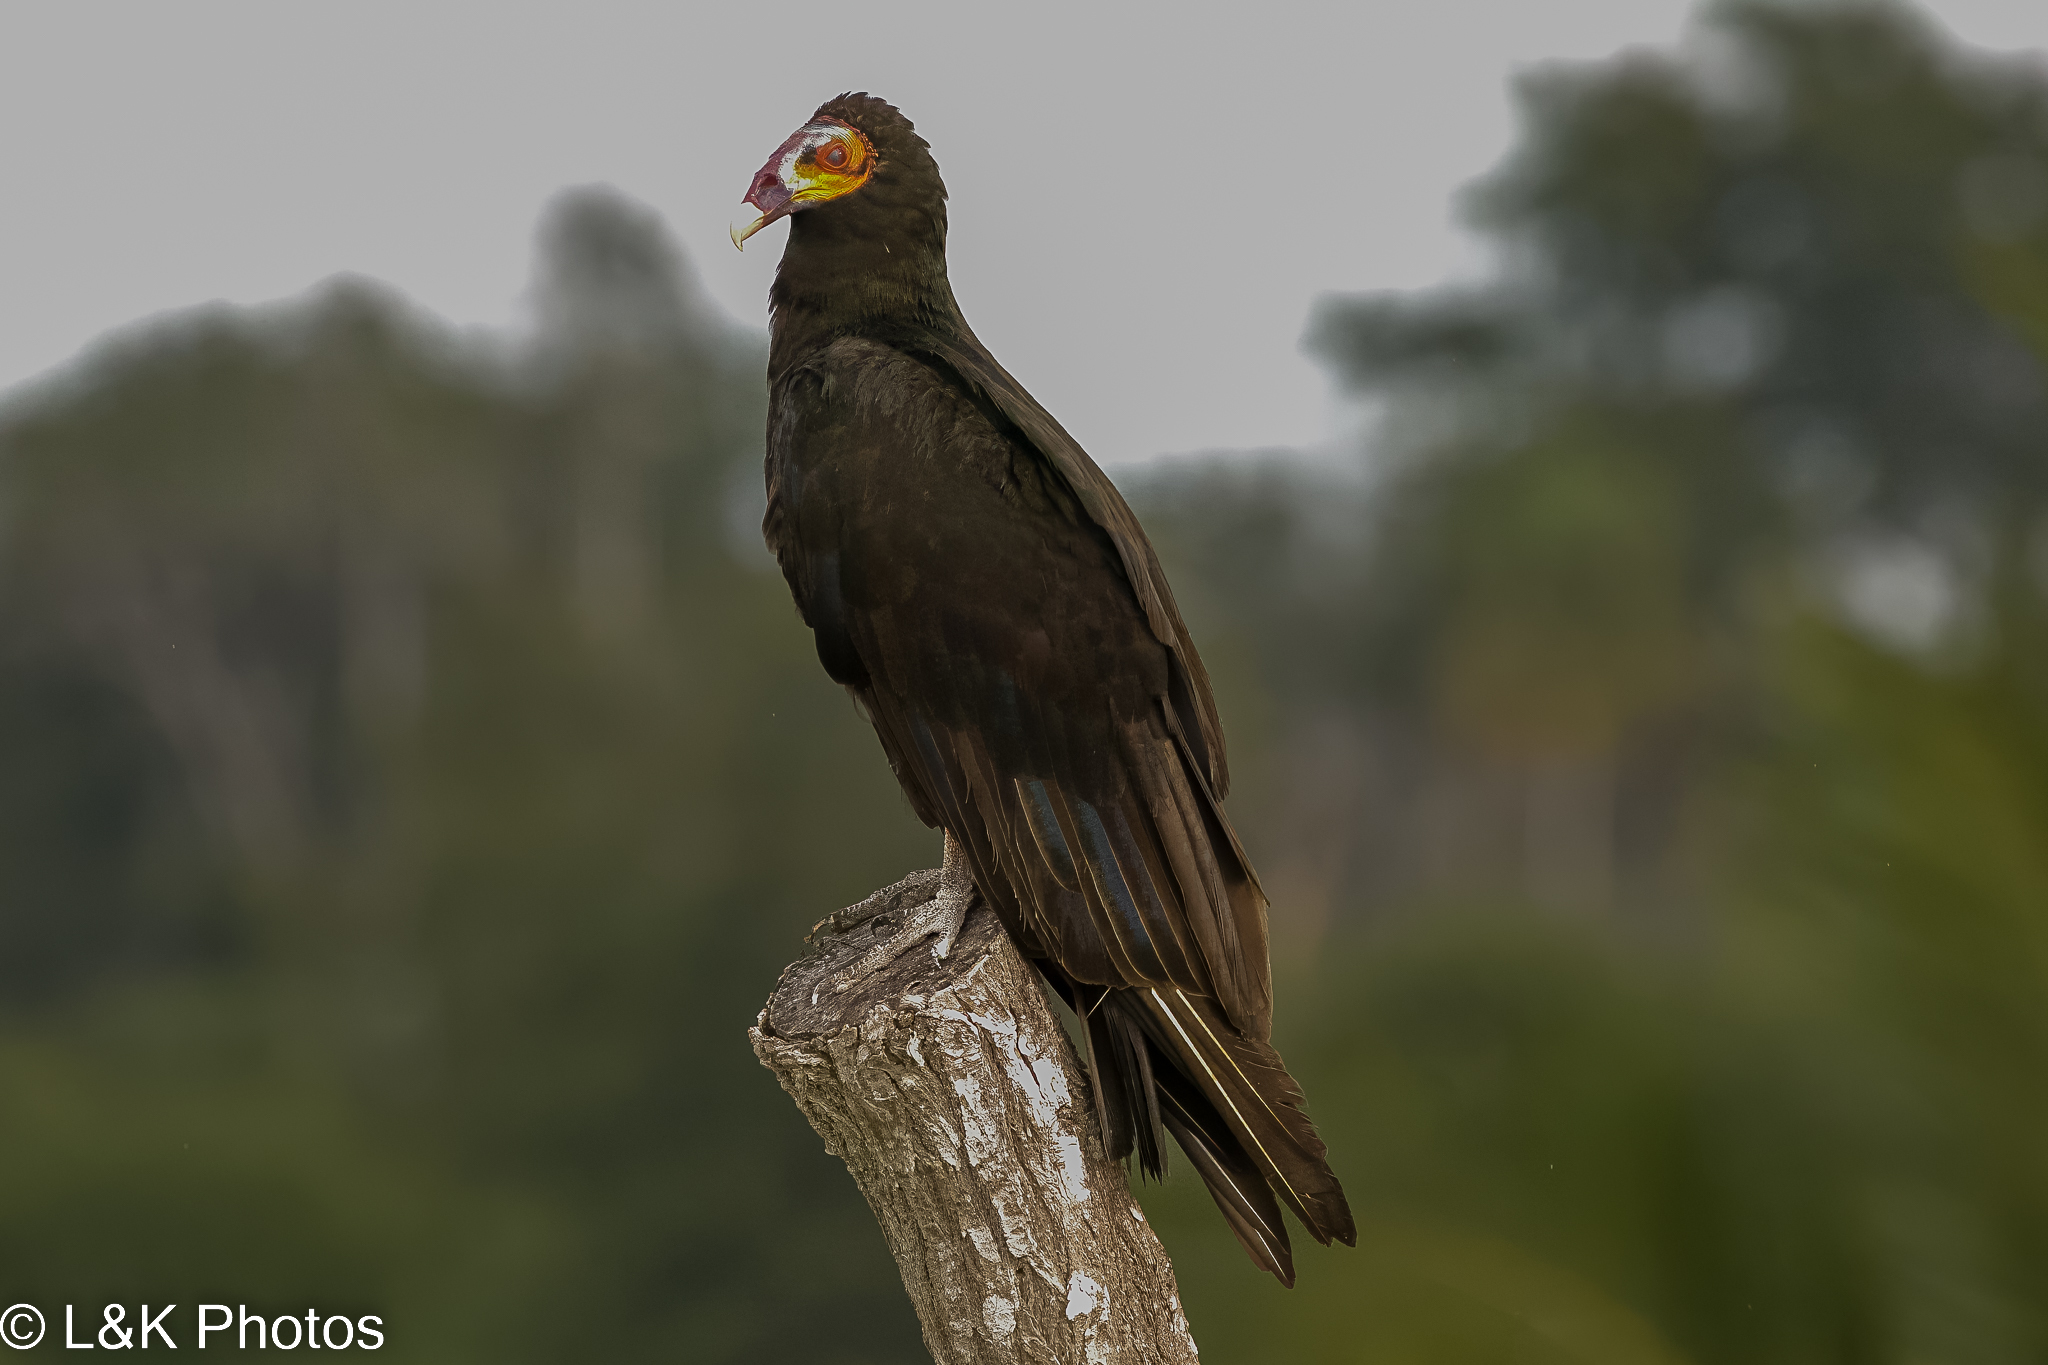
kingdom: Animalia
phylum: Chordata
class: Aves
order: Accipitriformes
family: Cathartidae
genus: Cathartes
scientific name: Cathartes burrovianus
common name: Lesser yellow-headed vulture
